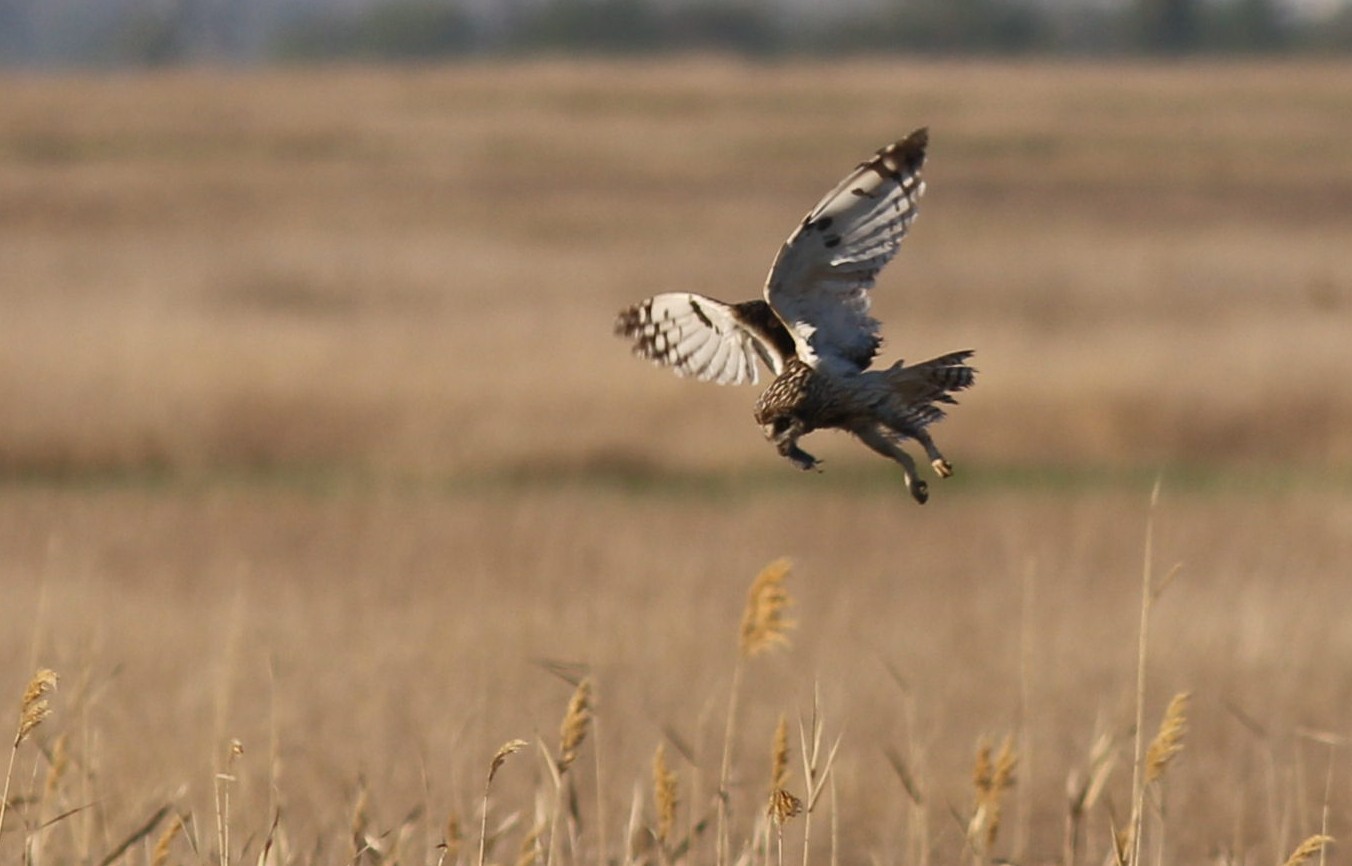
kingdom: Animalia
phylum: Chordata
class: Aves
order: Strigiformes
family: Strigidae
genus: Asio
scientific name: Asio flammeus
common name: Short-eared owl
